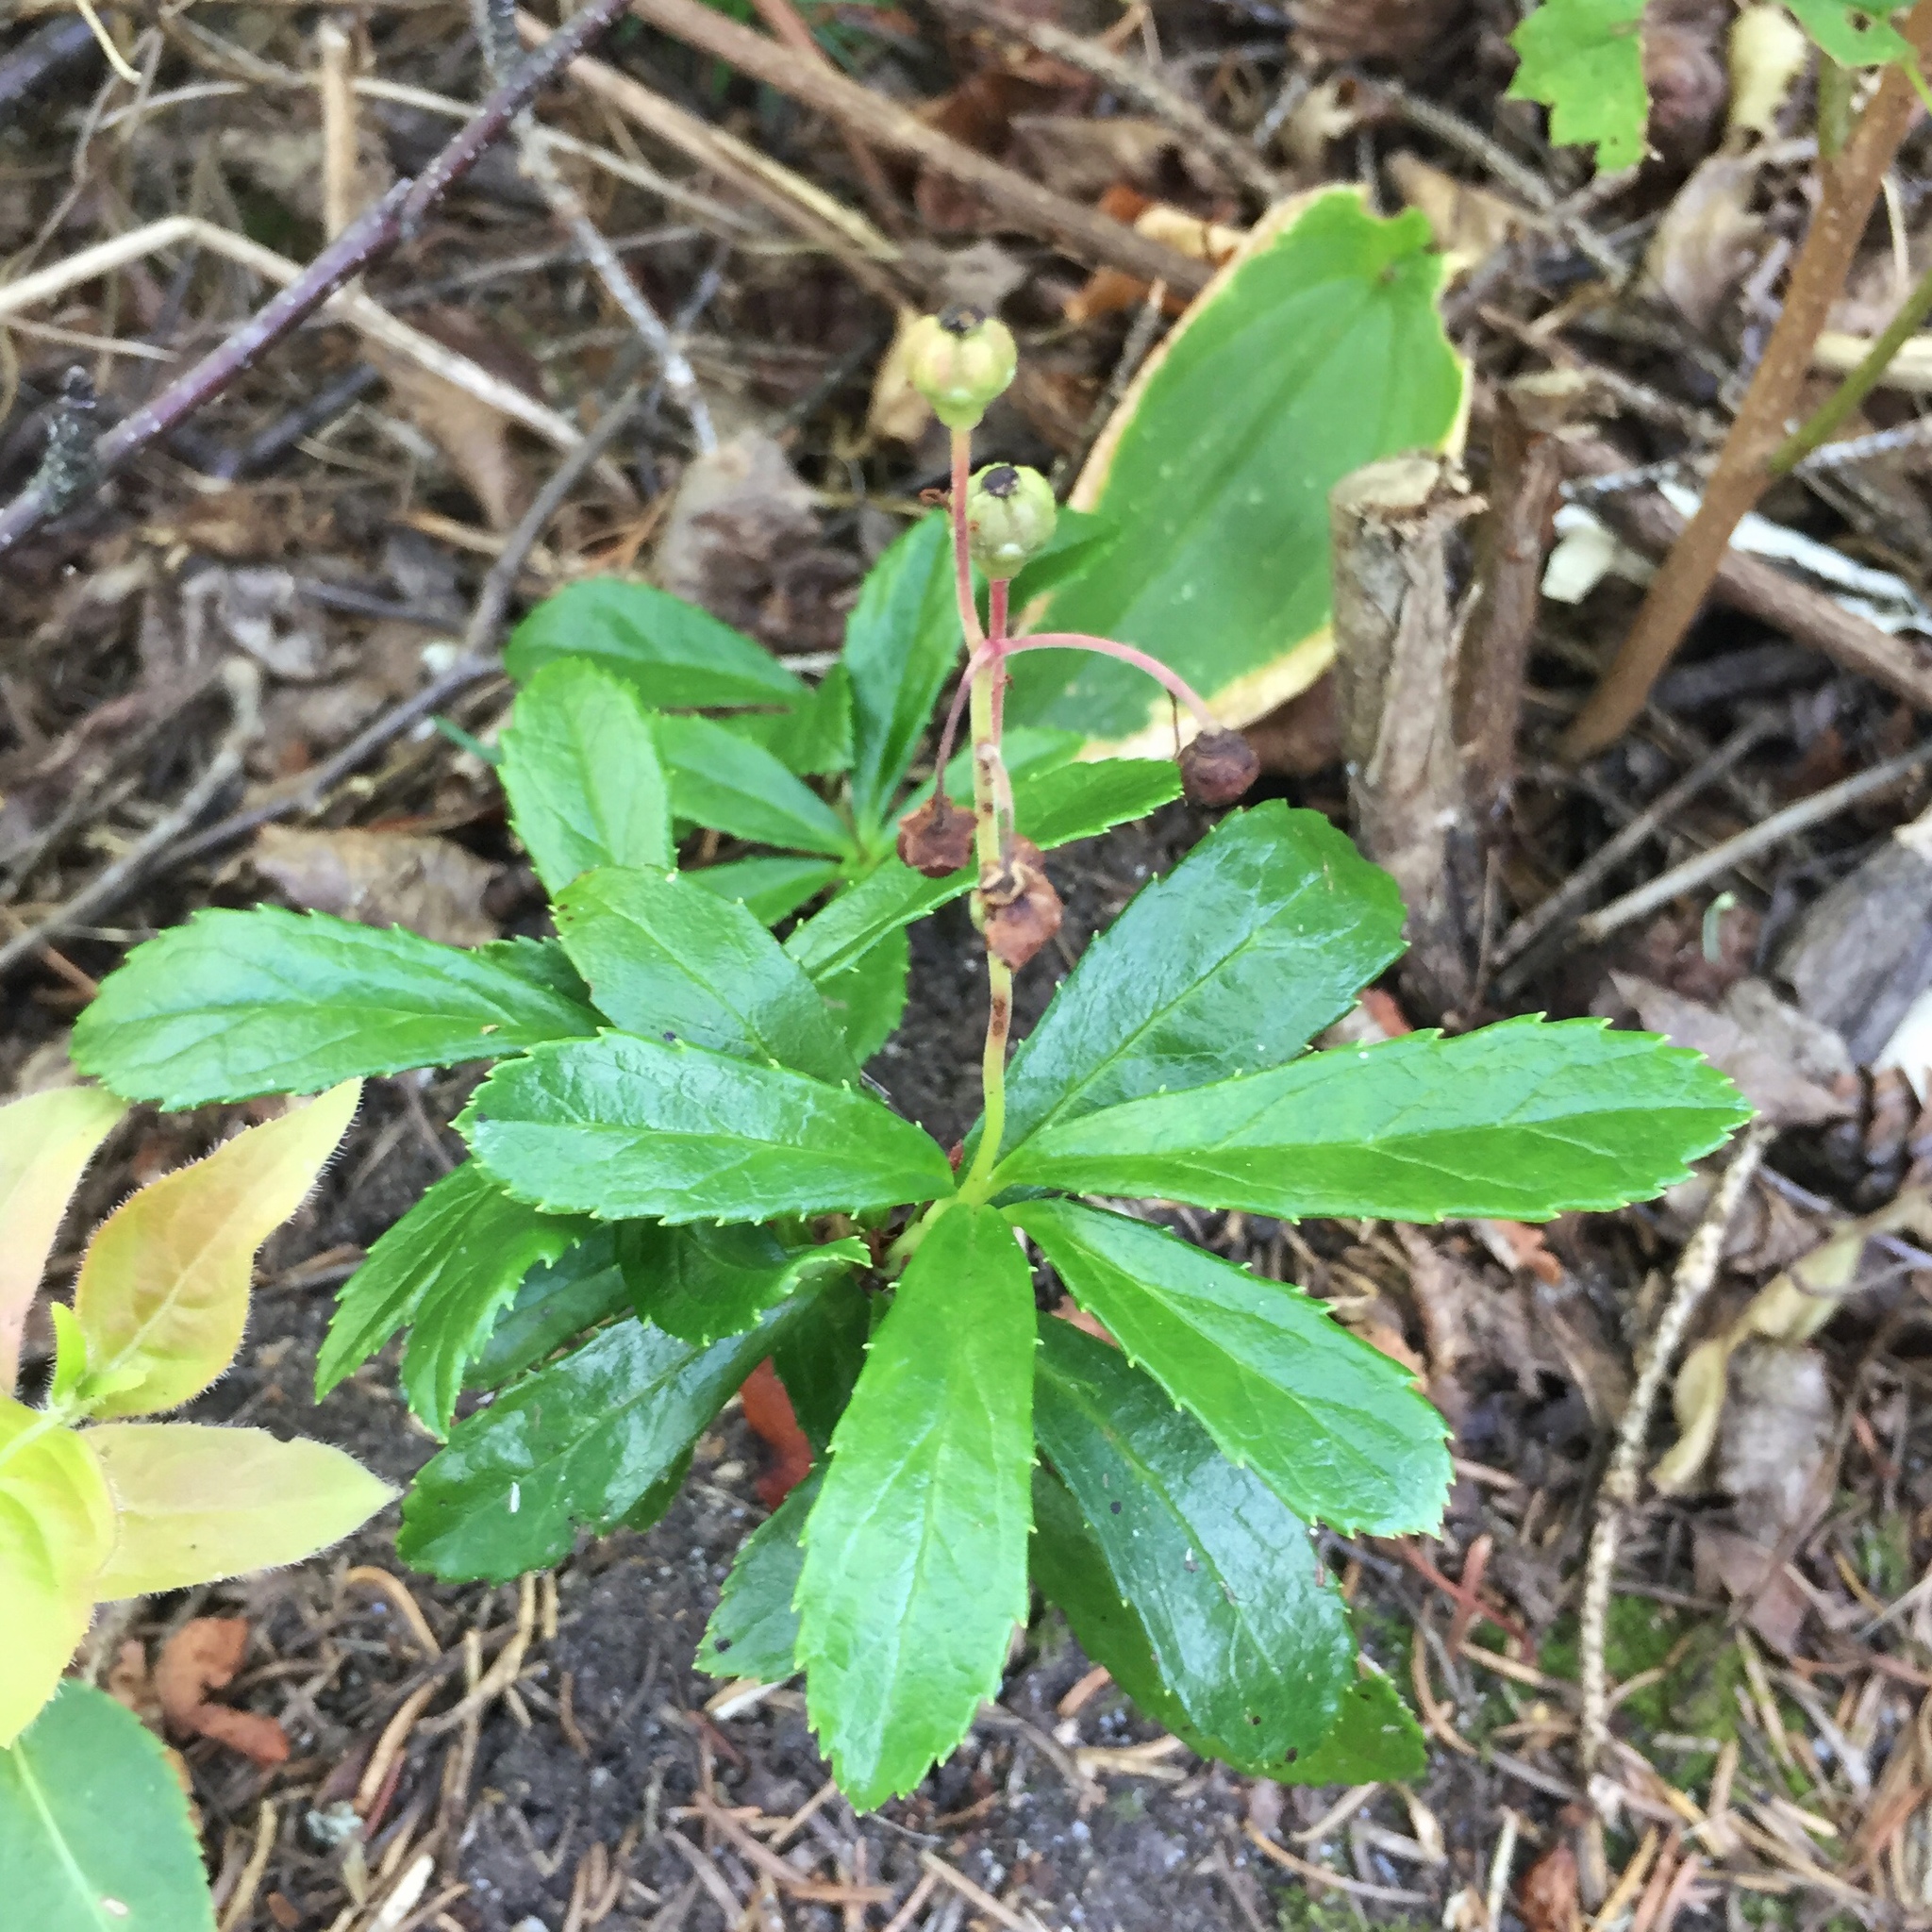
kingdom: Plantae
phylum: Tracheophyta
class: Magnoliopsida
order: Ericales
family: Ericaceae
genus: Chimaphila
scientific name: Chimaphila umbellata
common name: Pipsissewa
